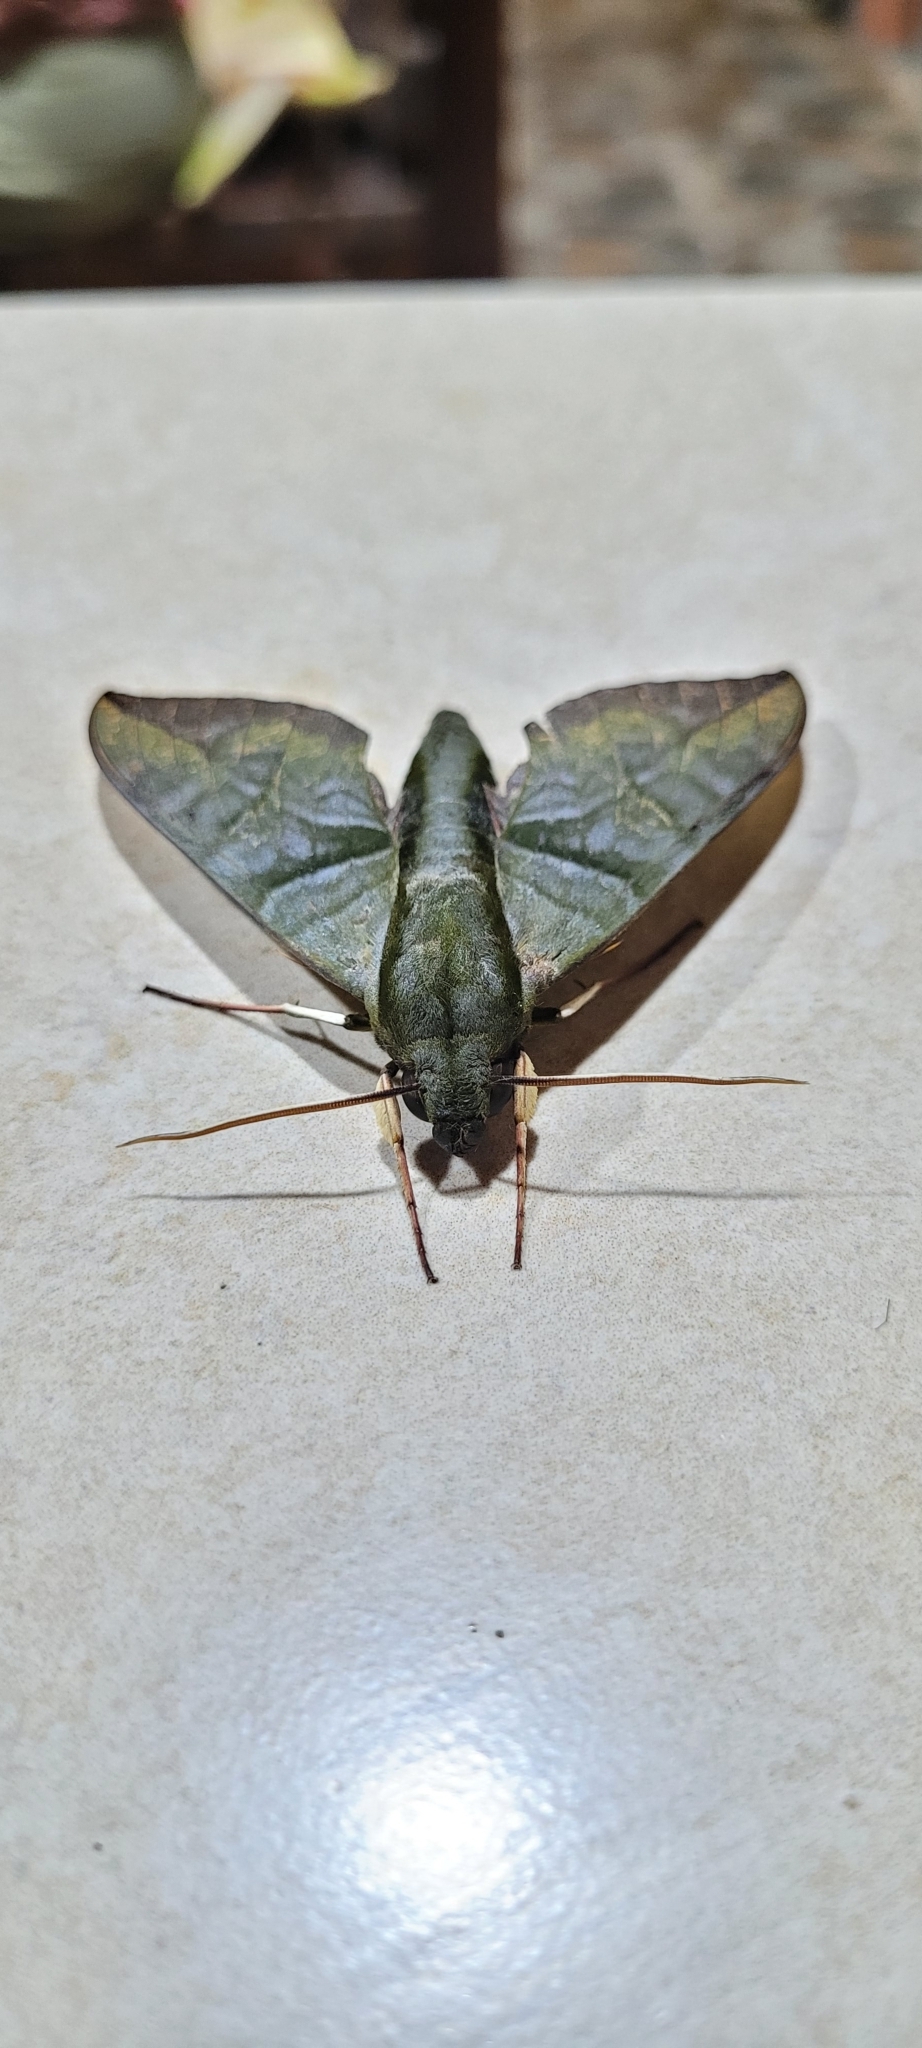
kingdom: Animalia
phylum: Arthropoda
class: Insecta
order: Lepidoptera
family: Sphingidae
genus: Eumorpha
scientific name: Eumorpha phorbas
